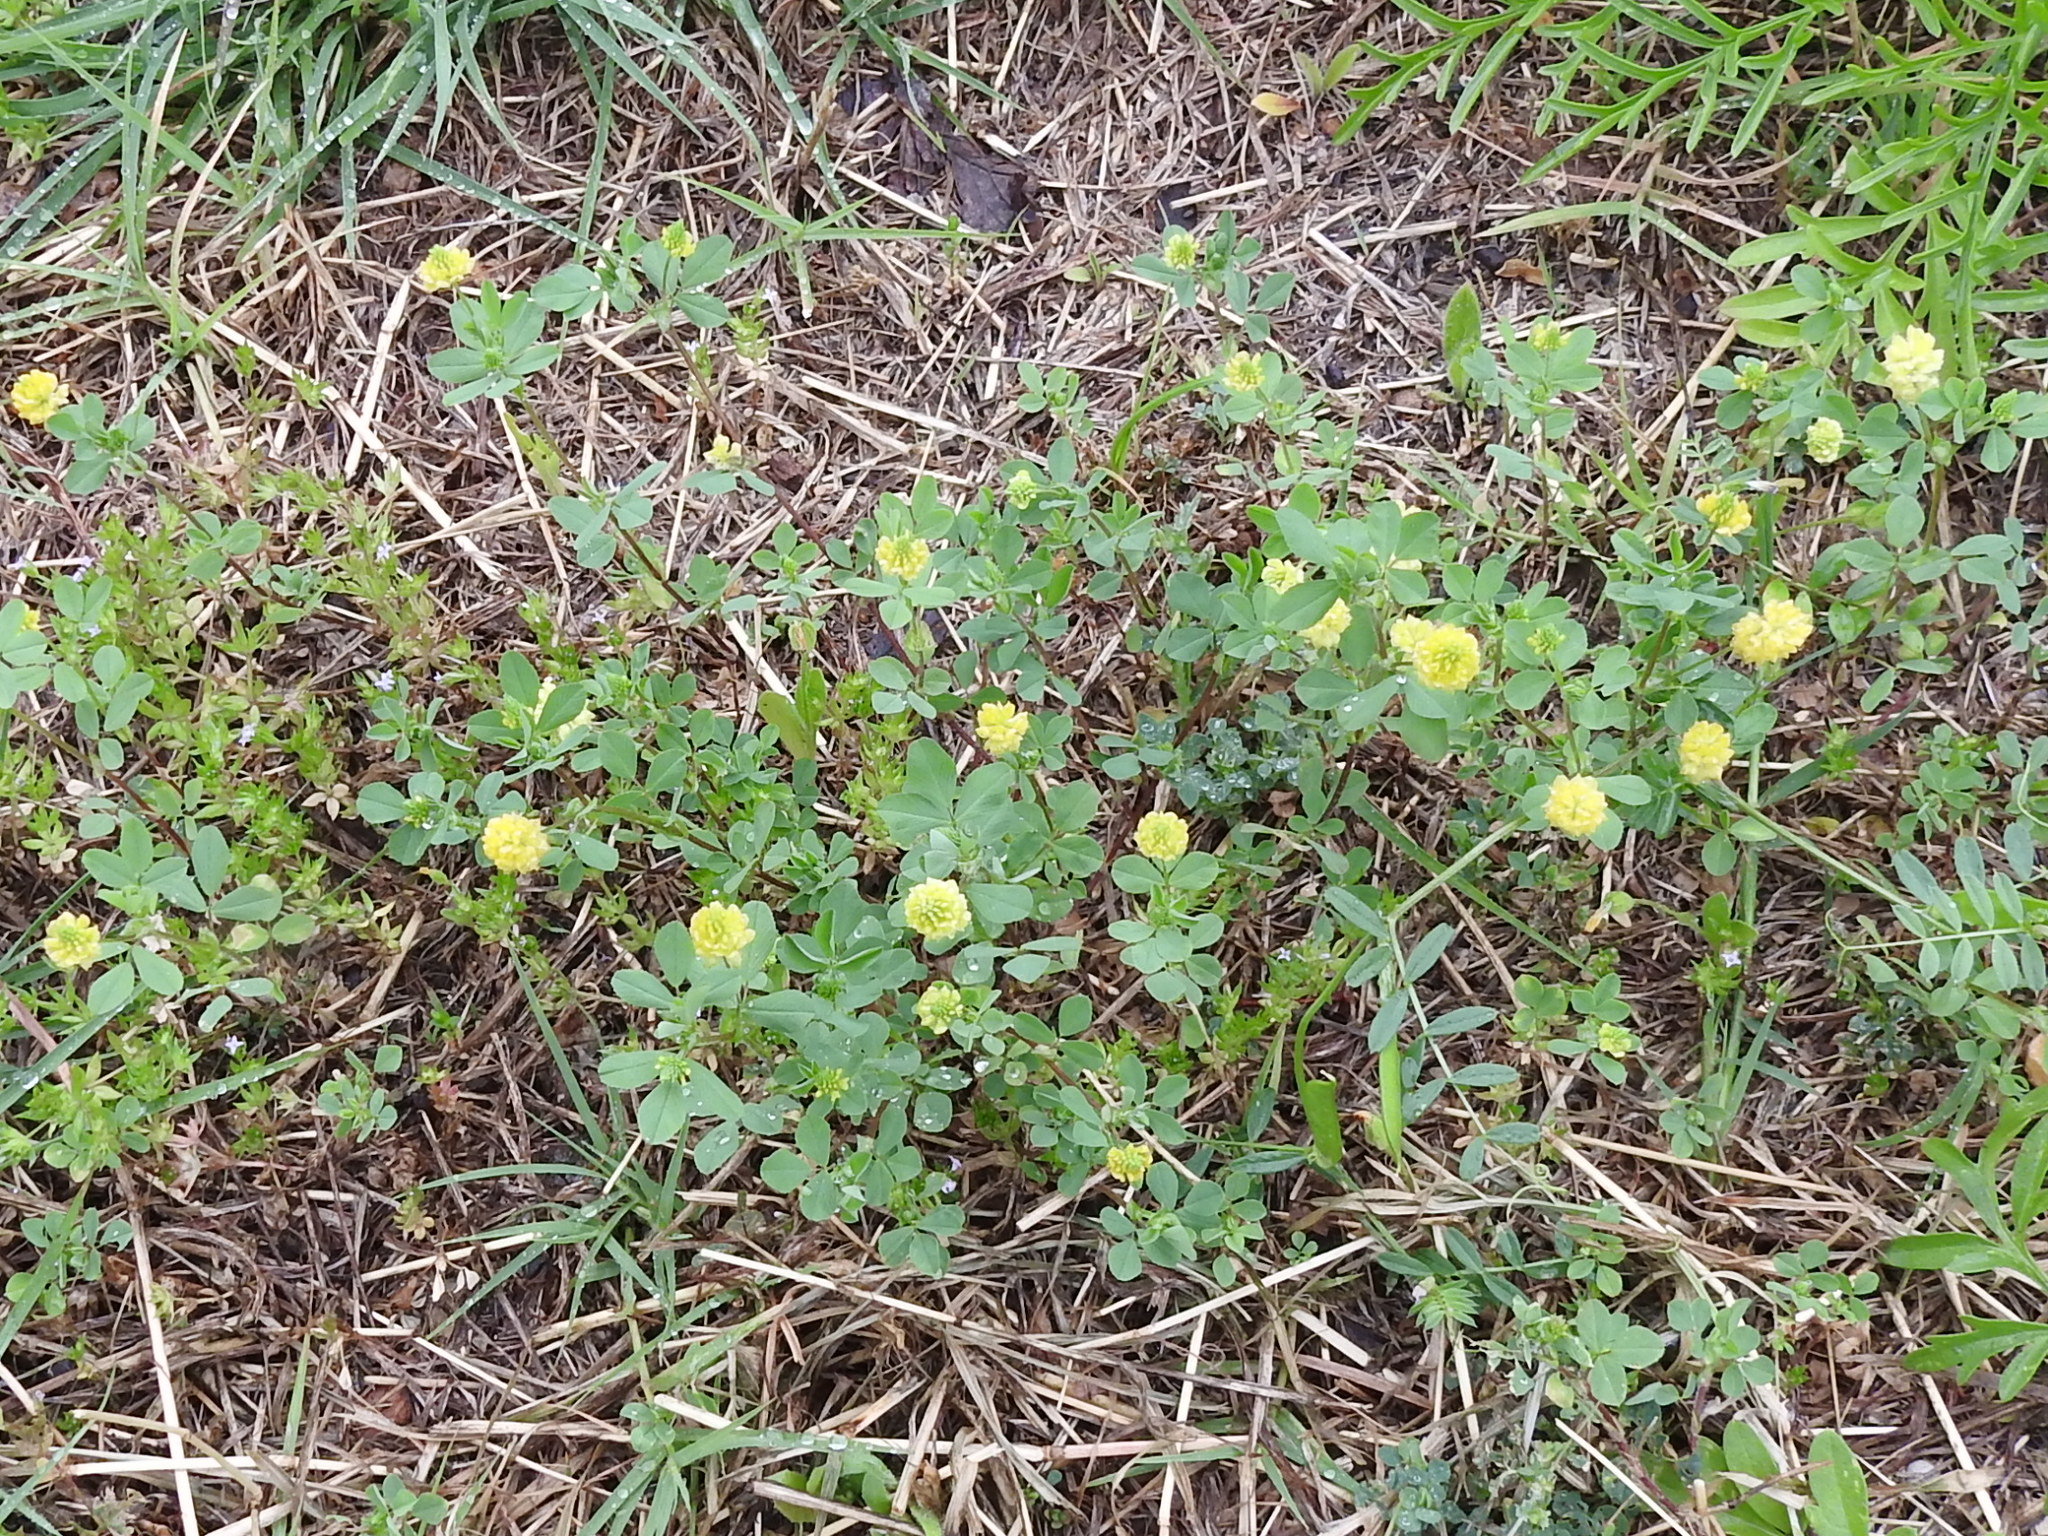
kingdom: Plantae
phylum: Tracheophyta
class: Magnoliopsida
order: Fabales
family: Fabaceae
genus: Trifolium
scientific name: Trifolium campestre
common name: Field clover
